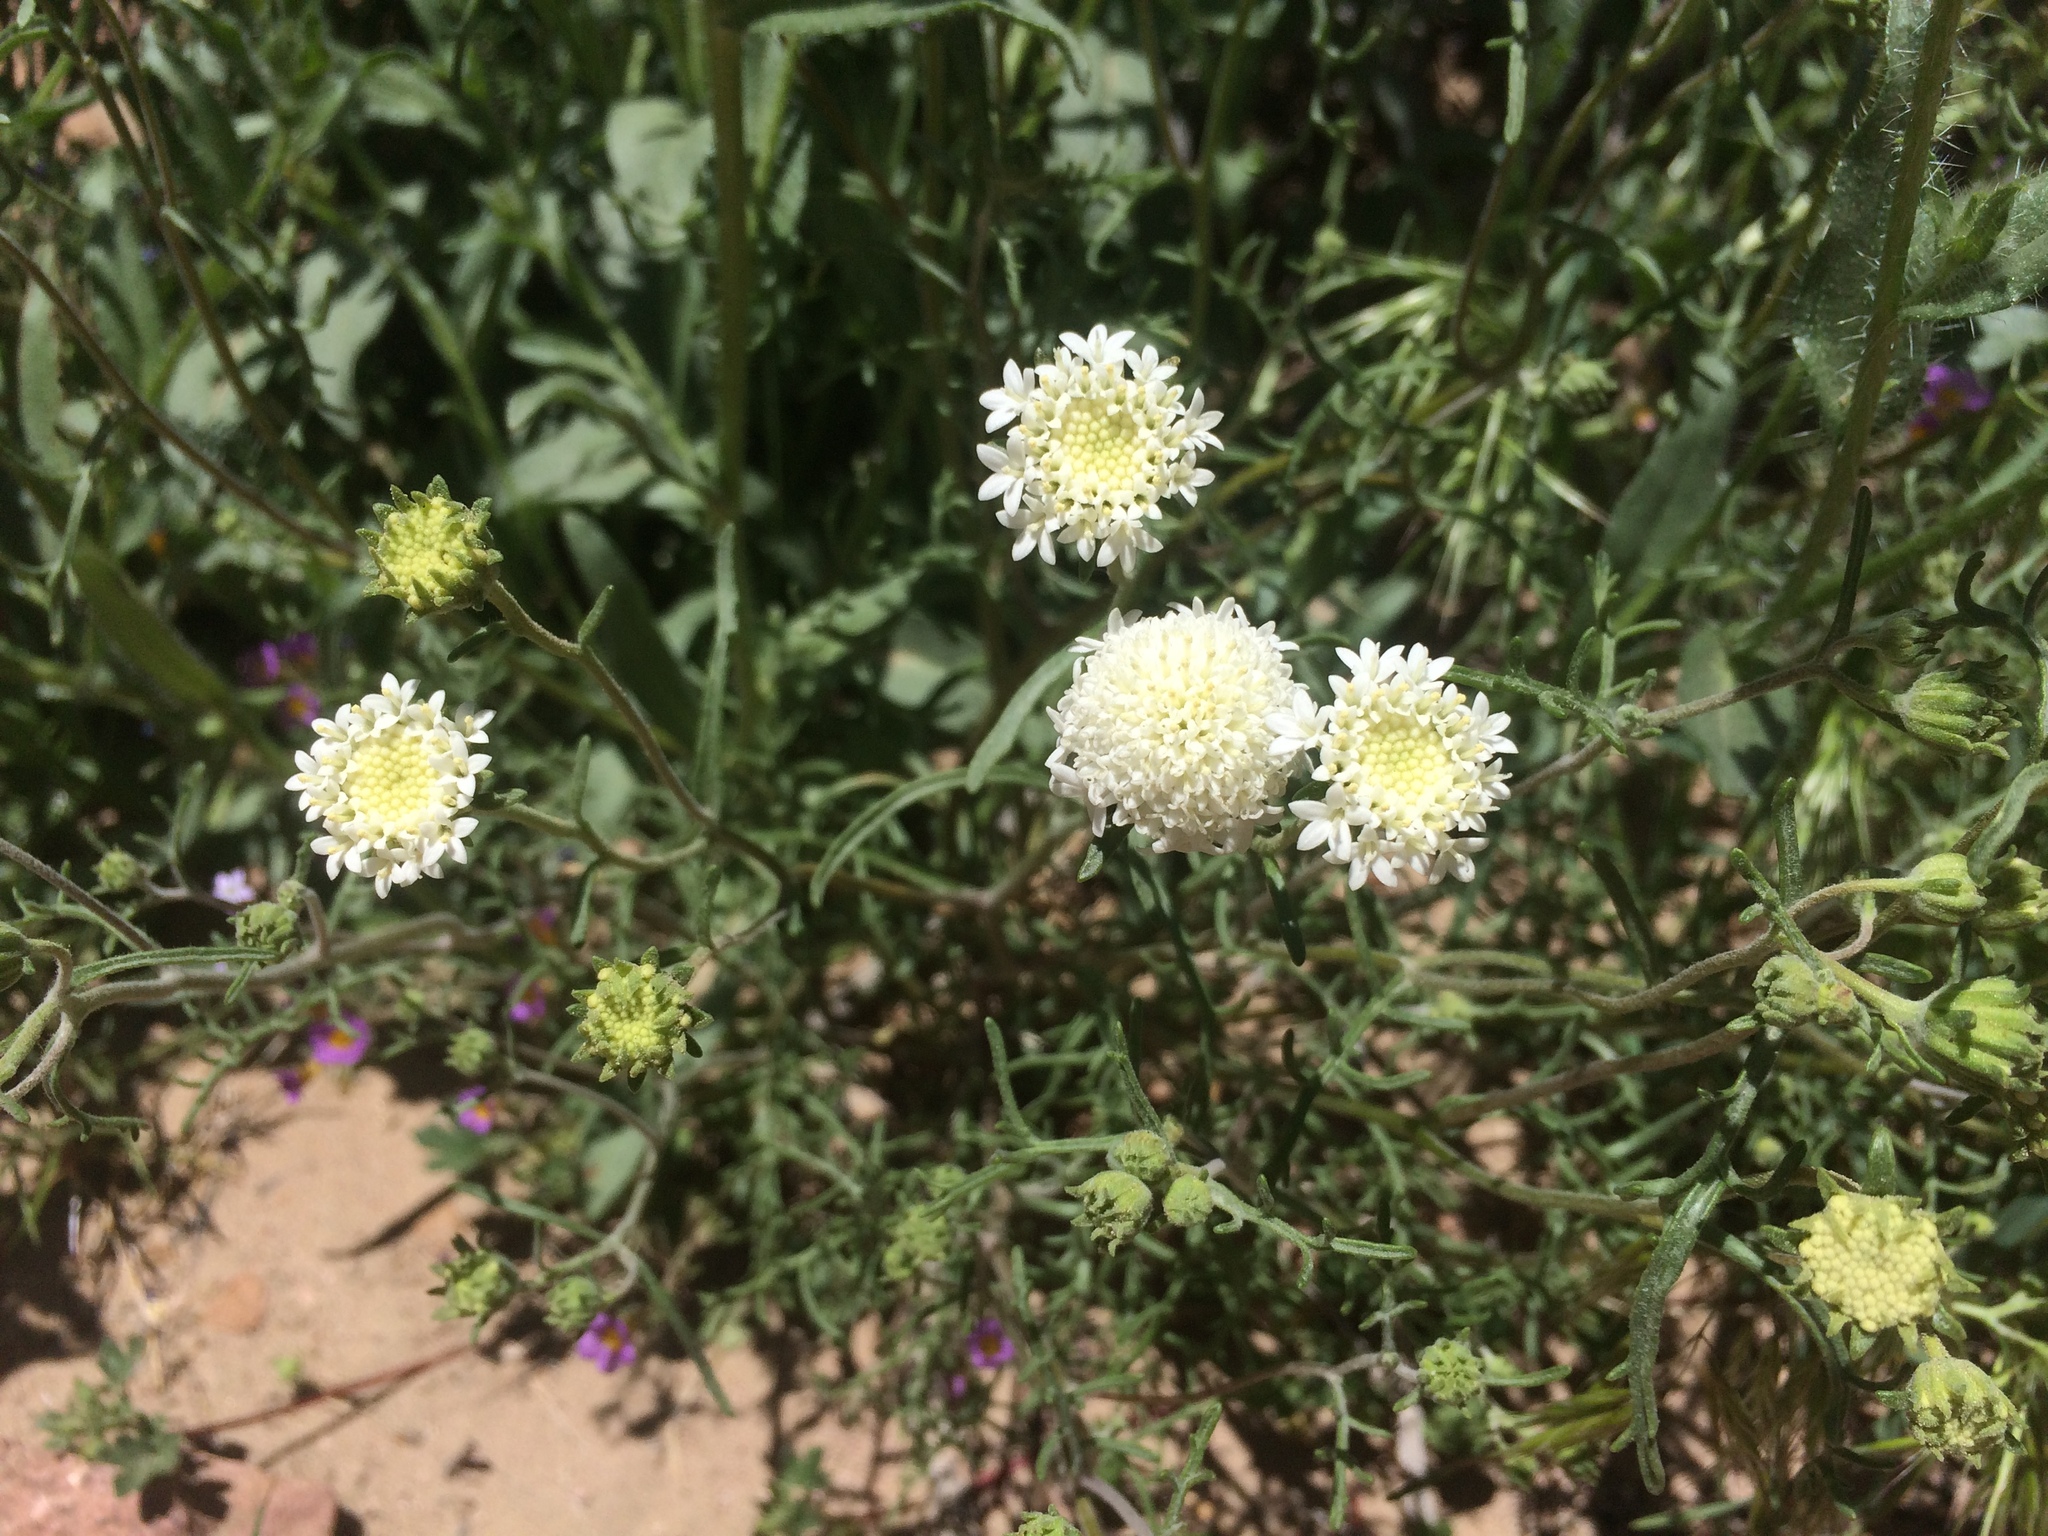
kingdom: Plantae
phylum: Tracheophyta
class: Magnoliopsida
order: Asterales
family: Asteraceae
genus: Chaenactis
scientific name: Chaenactis stevioides
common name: Desert pincushion
